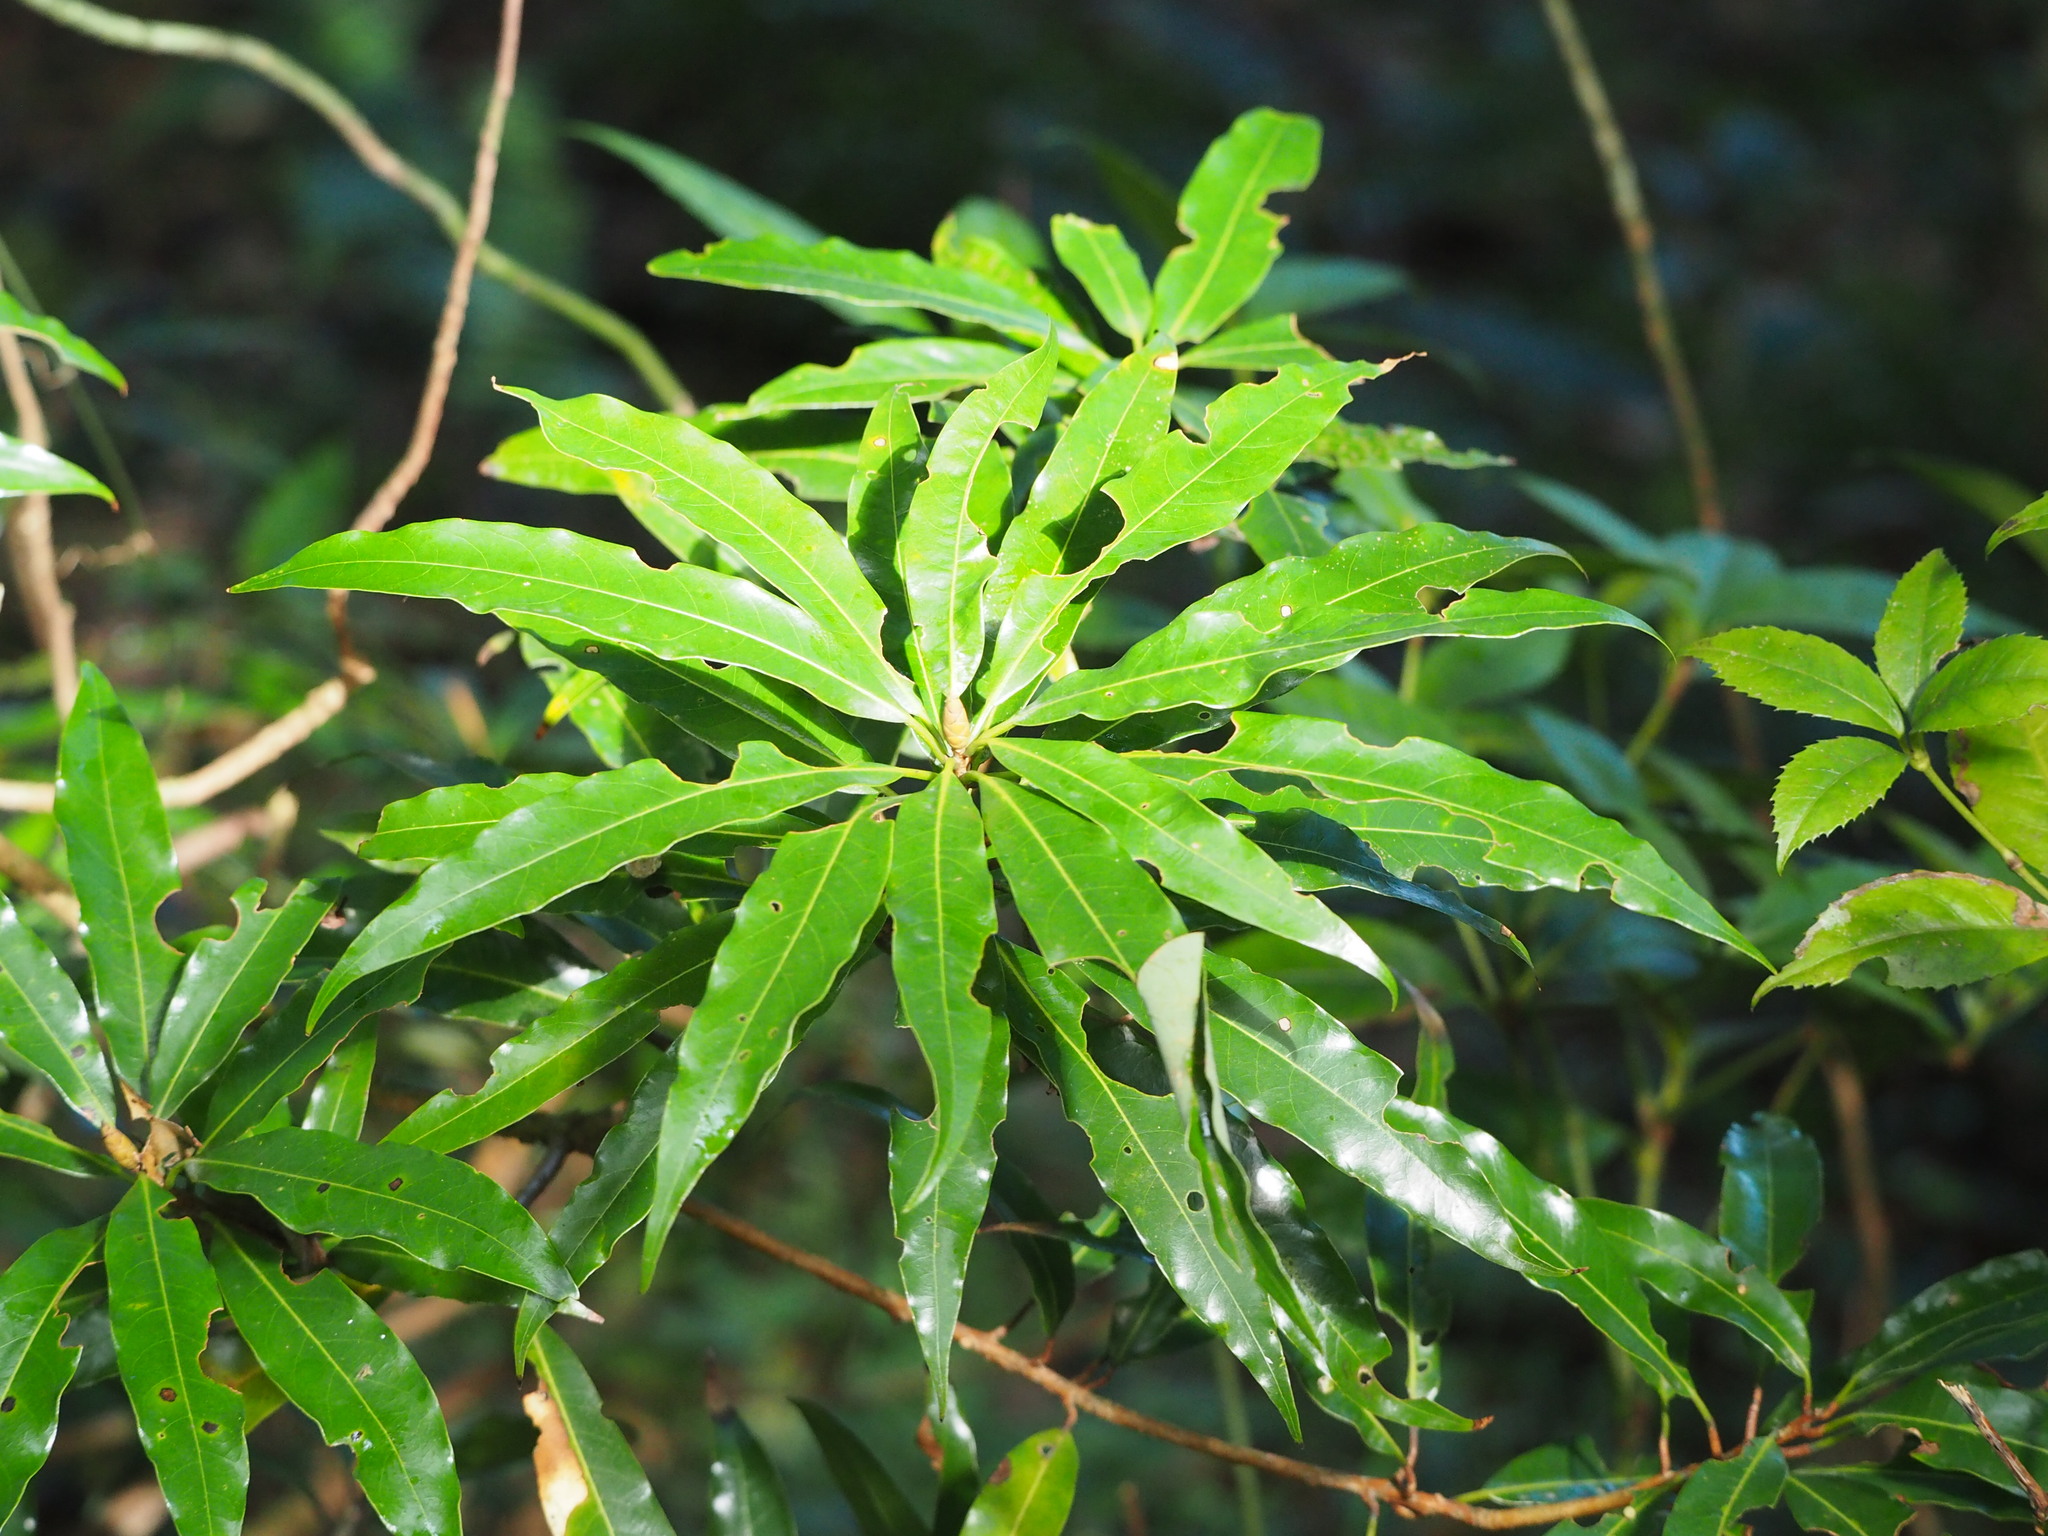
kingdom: Plantae
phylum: Tracheophyta
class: Magnoliopsida
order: Laurales
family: Lauraceae
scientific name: Lauraceae
